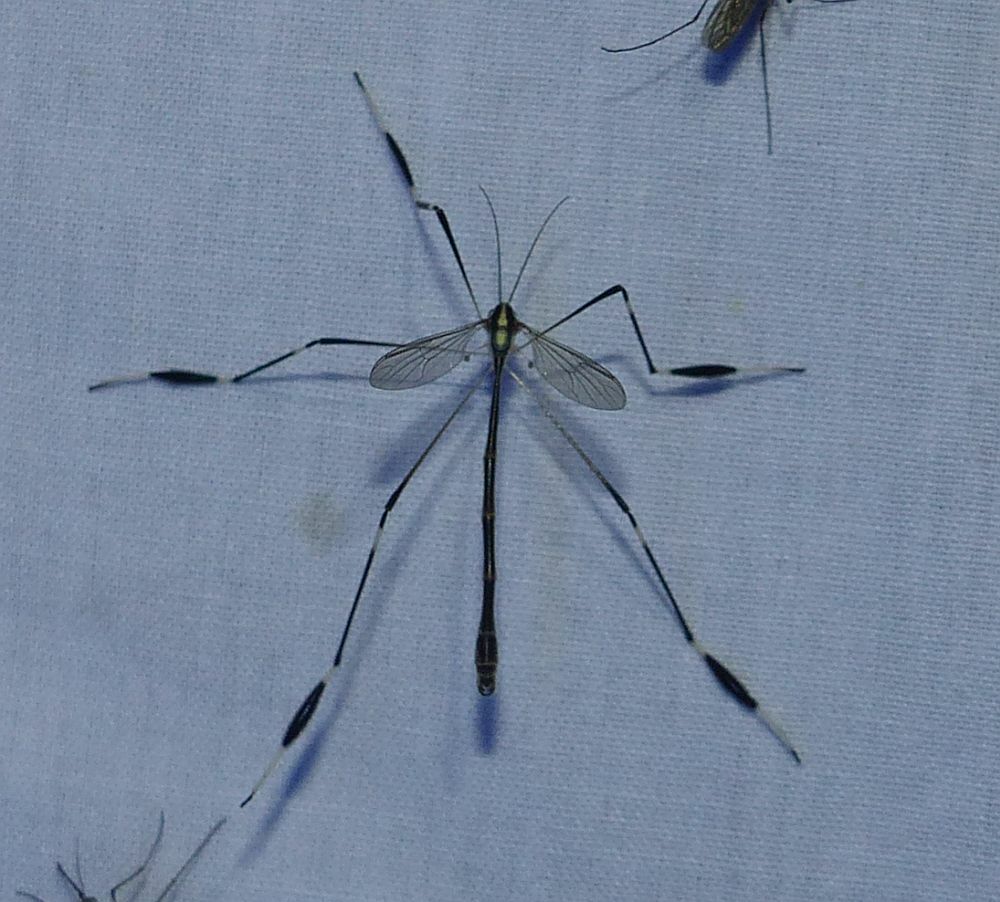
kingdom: Animalia
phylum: Arthropoda
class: Insecta
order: Diptera
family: Ptychopteridae
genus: Bittacomorpha
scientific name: Bittacomorpha clavipes
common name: Eastern phantom crane fly
